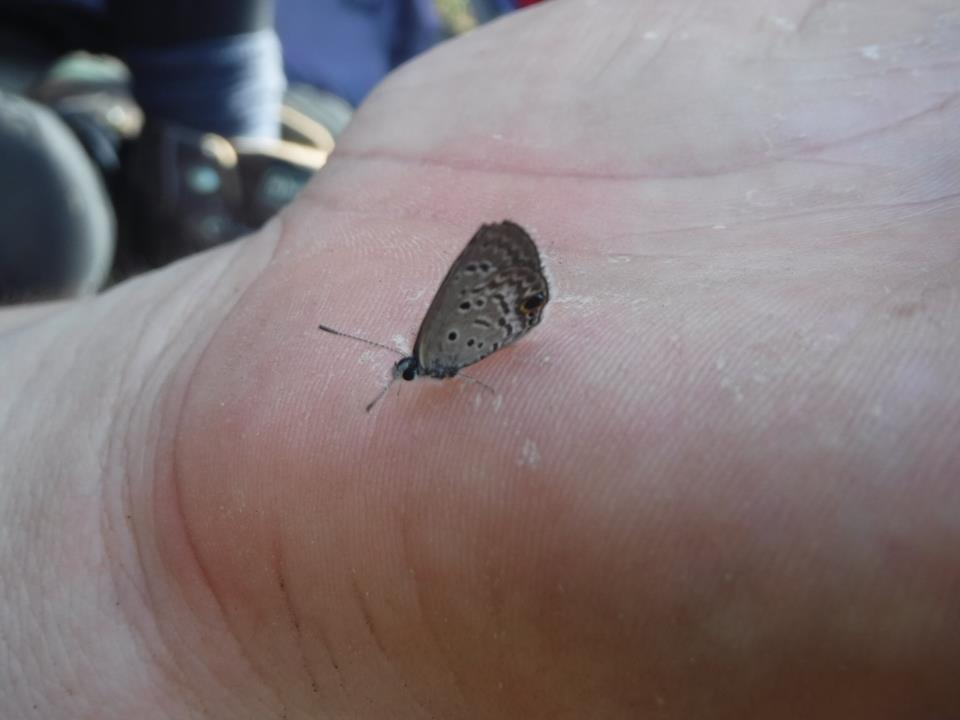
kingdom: Animalia
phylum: Arthropoda
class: Insecta
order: Lepidoptera
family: Lycaenidae
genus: Hemiargus
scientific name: Hemiargus ceraunus
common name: Ceraunus blue
